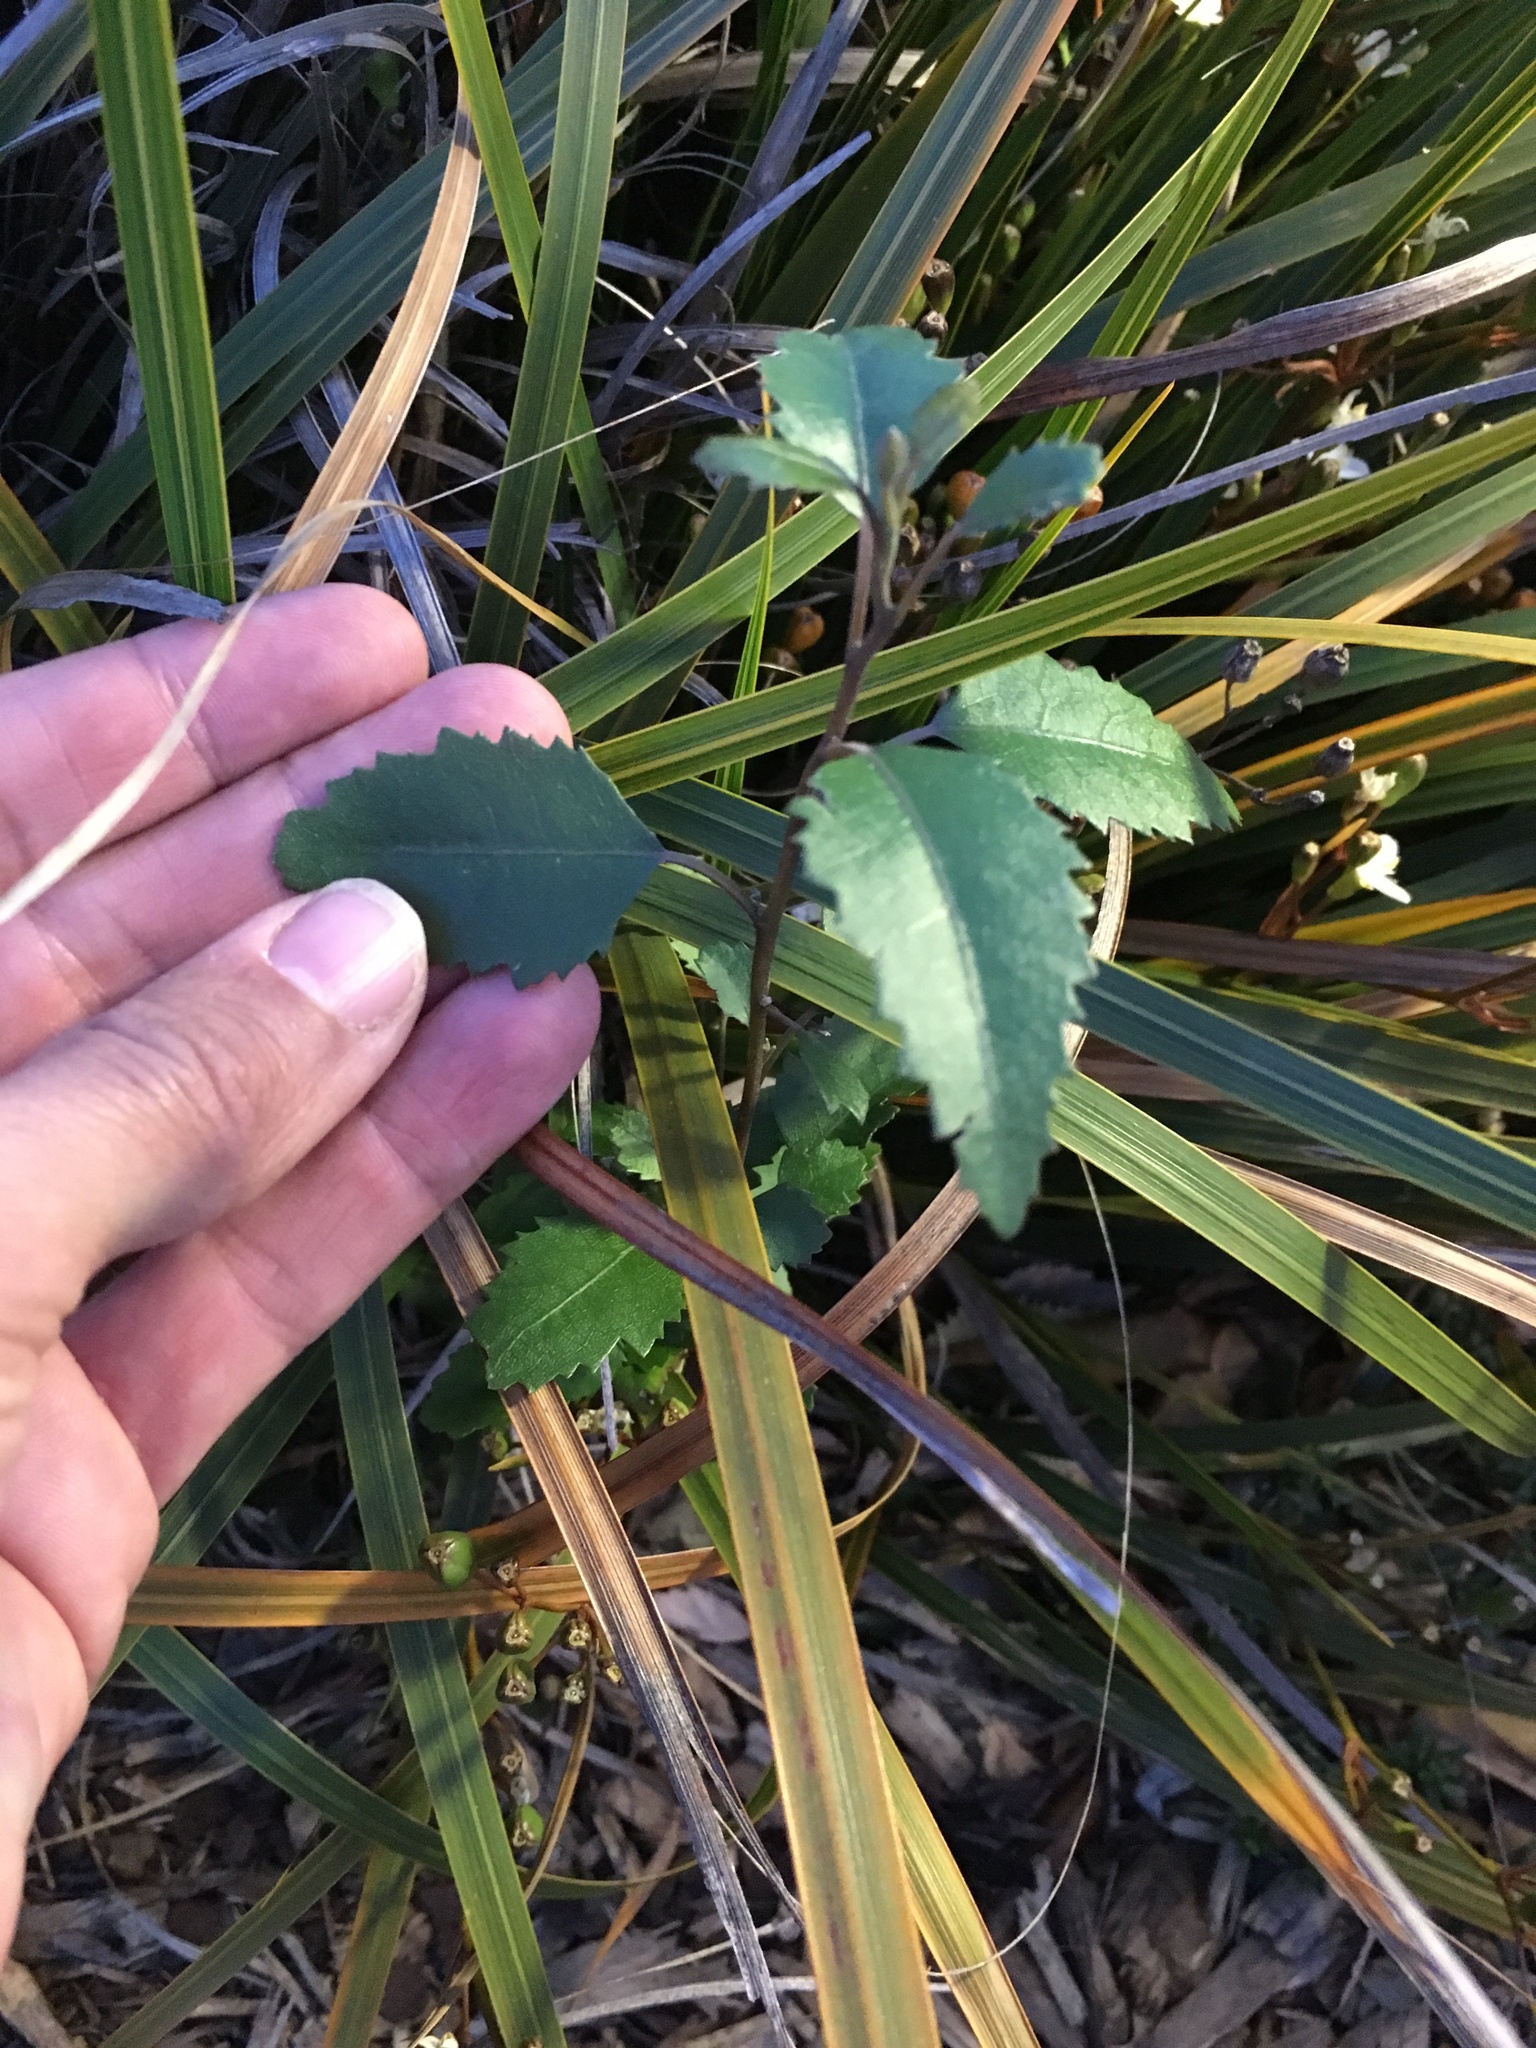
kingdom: Plantae
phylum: Tracheophyta
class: Magnoliopsida
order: Malvales
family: Malvaceae
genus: Hoheria
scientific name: Hoheria populnea
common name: Lacebark
